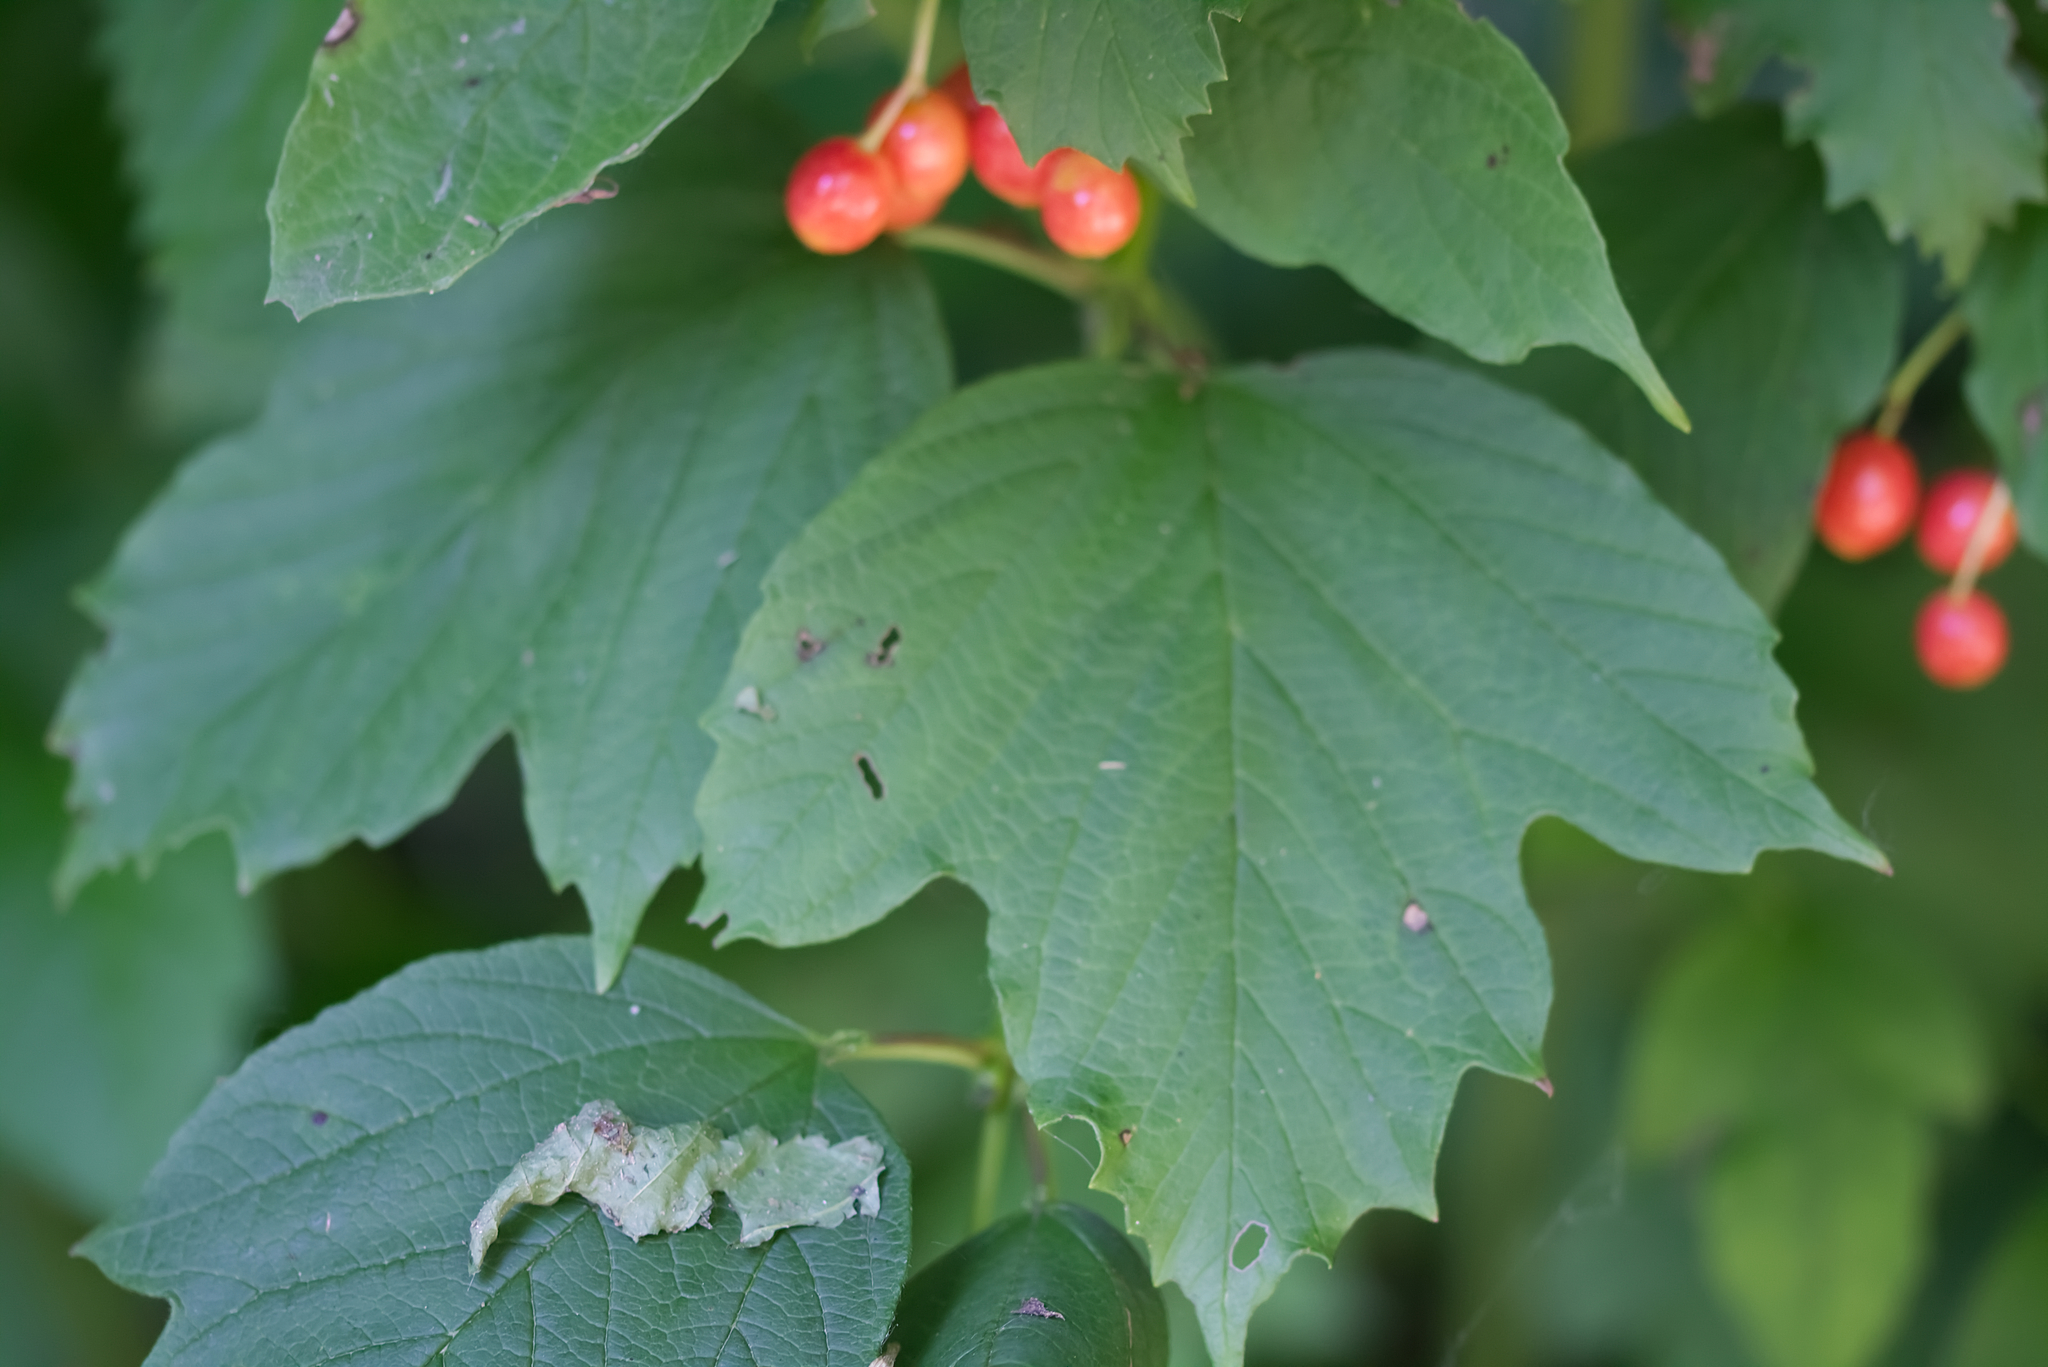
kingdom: Plantae
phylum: Tracheophyta
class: Magnoliopsida
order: Dipsacales
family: Viburnaceae
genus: Viburnum
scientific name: Viburnum opulus
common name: Guelder-rose
